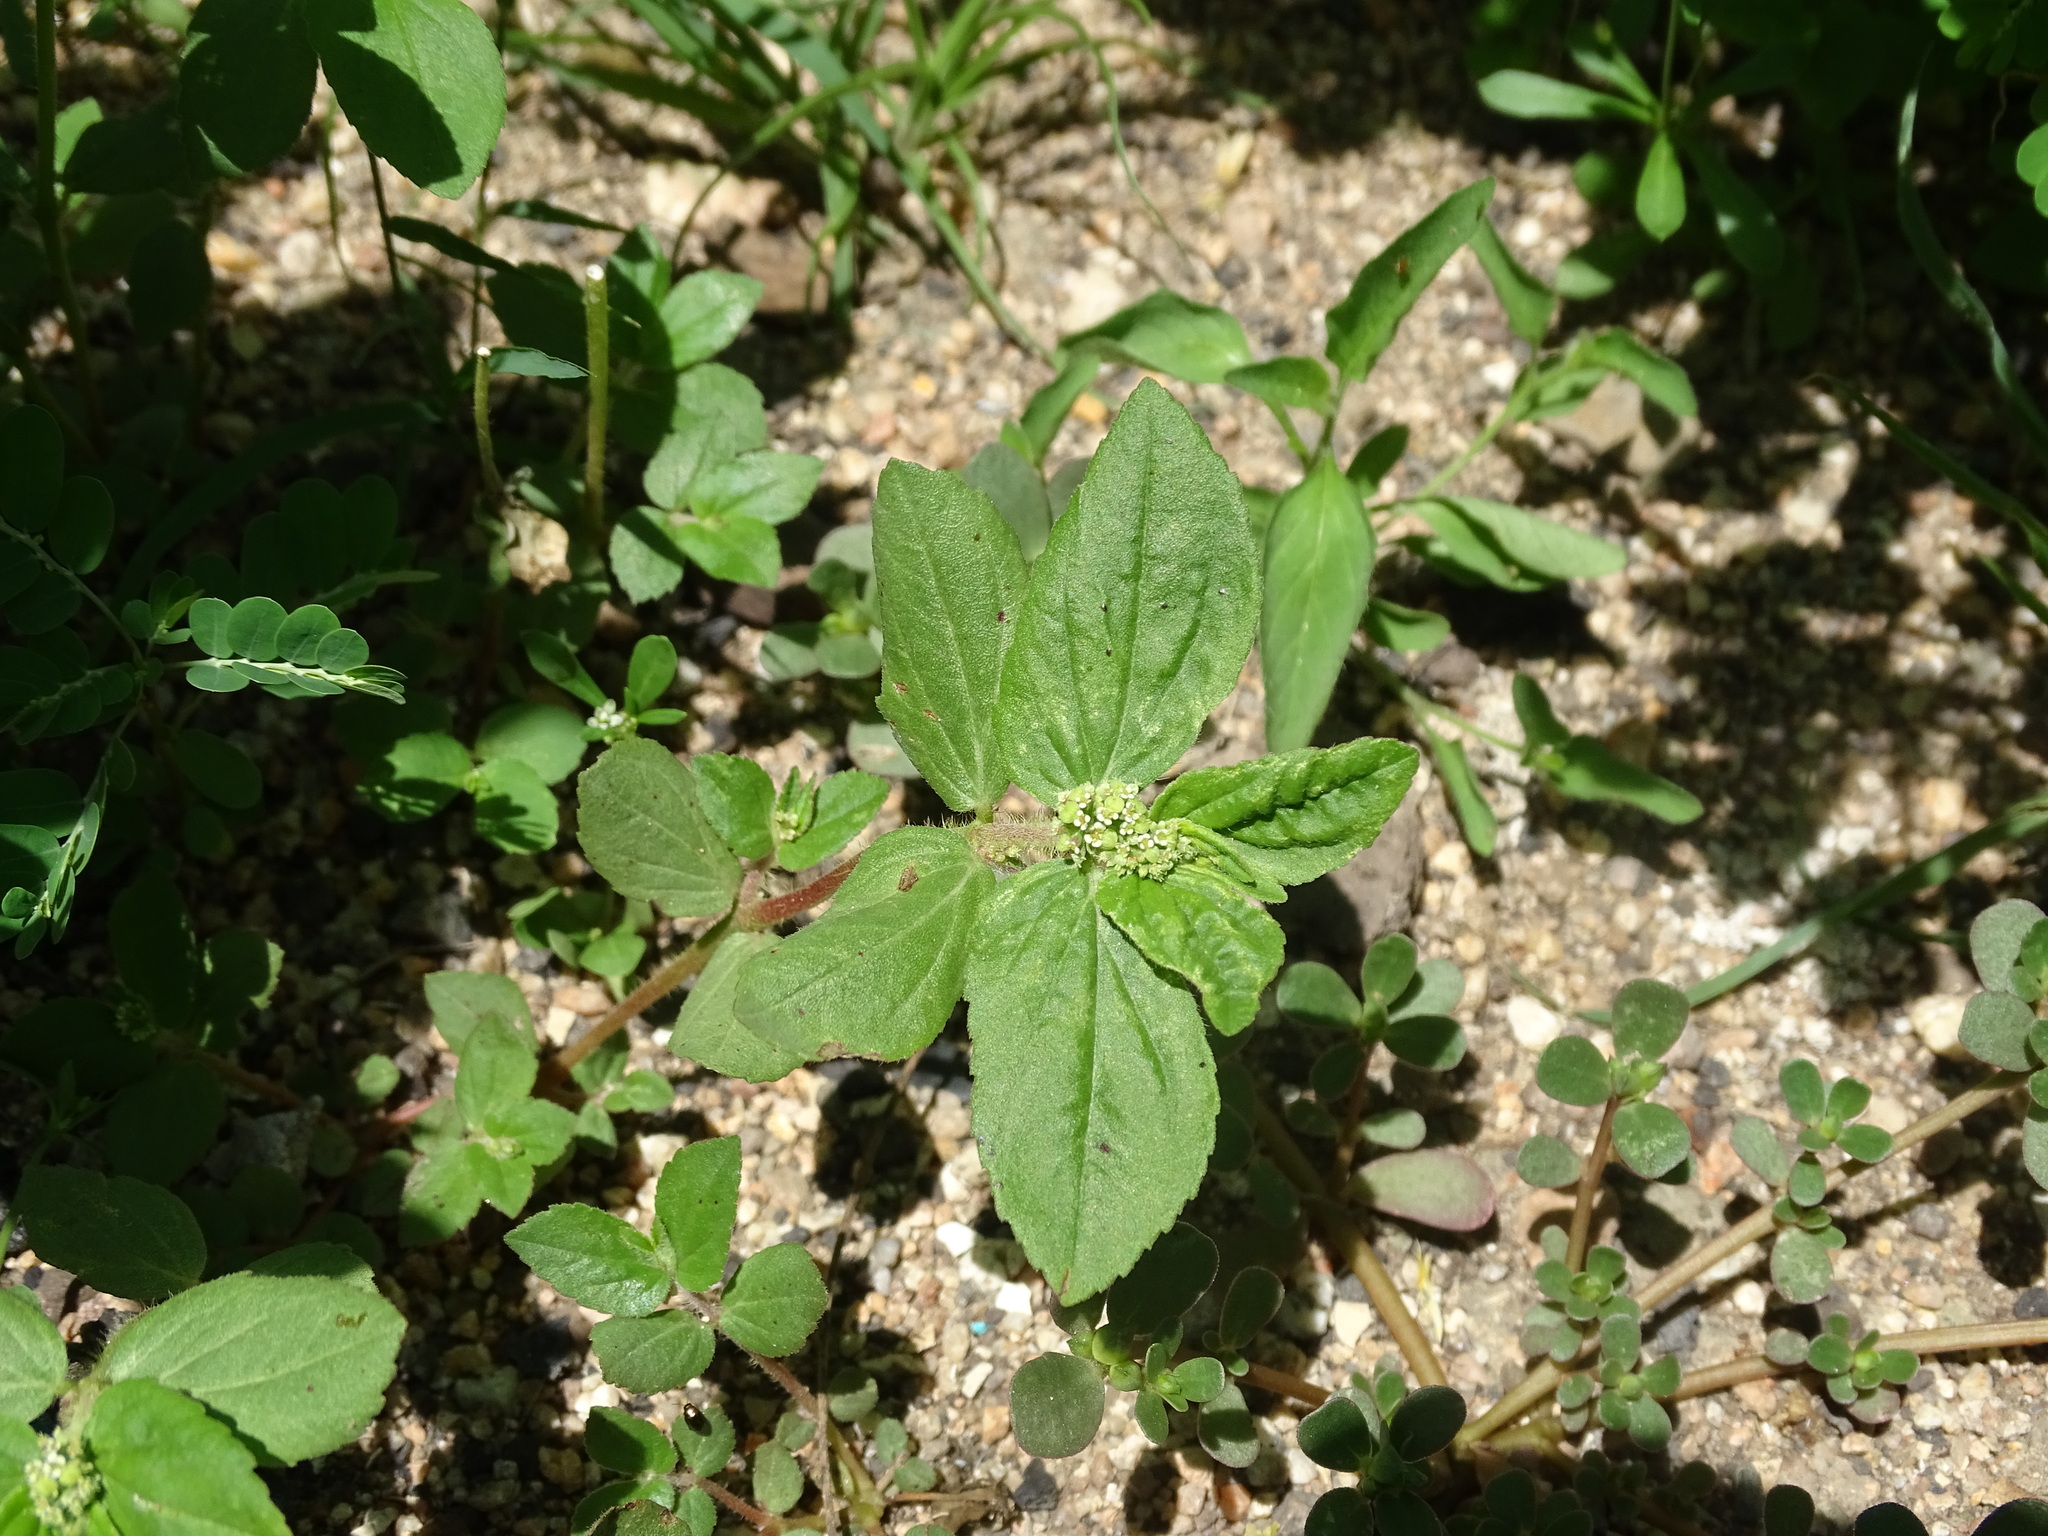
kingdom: Plantae
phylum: Tracheophyta
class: Magnoliopsida
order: Malpighiales
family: Euphorbiaceae
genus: Euphorbia
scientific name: Euphorbia hirta
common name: Pillpod sandmat
